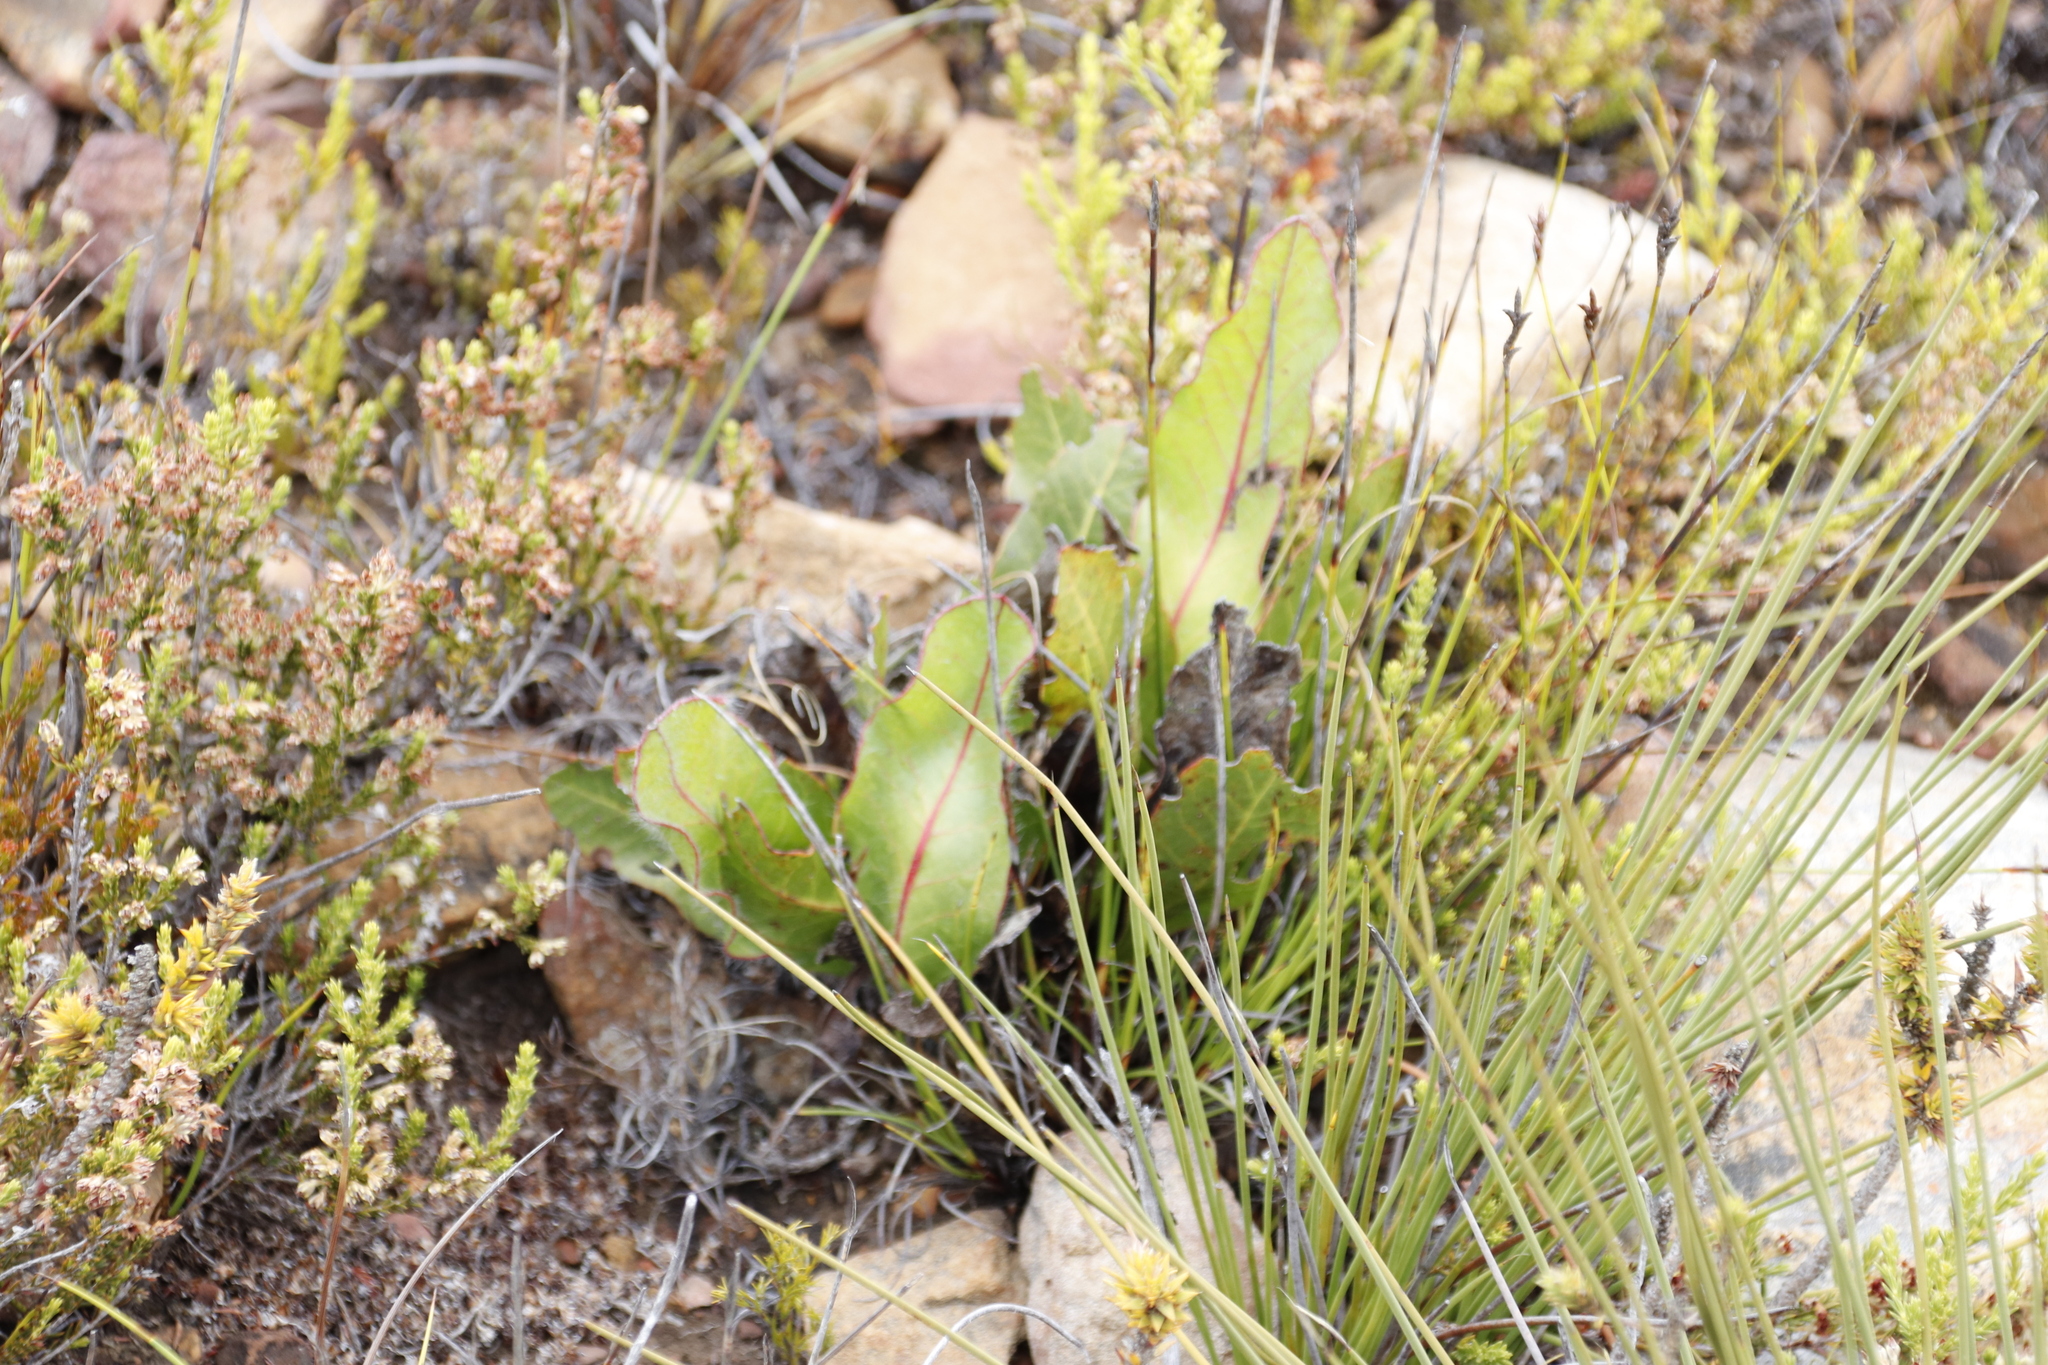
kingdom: Plantae
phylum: Tracheophyta
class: Magnoliopsida
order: Proteales
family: Proteaceae
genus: Protea
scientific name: Protea scolopendriifolia
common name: Harts-tongue-fern sugarbush
